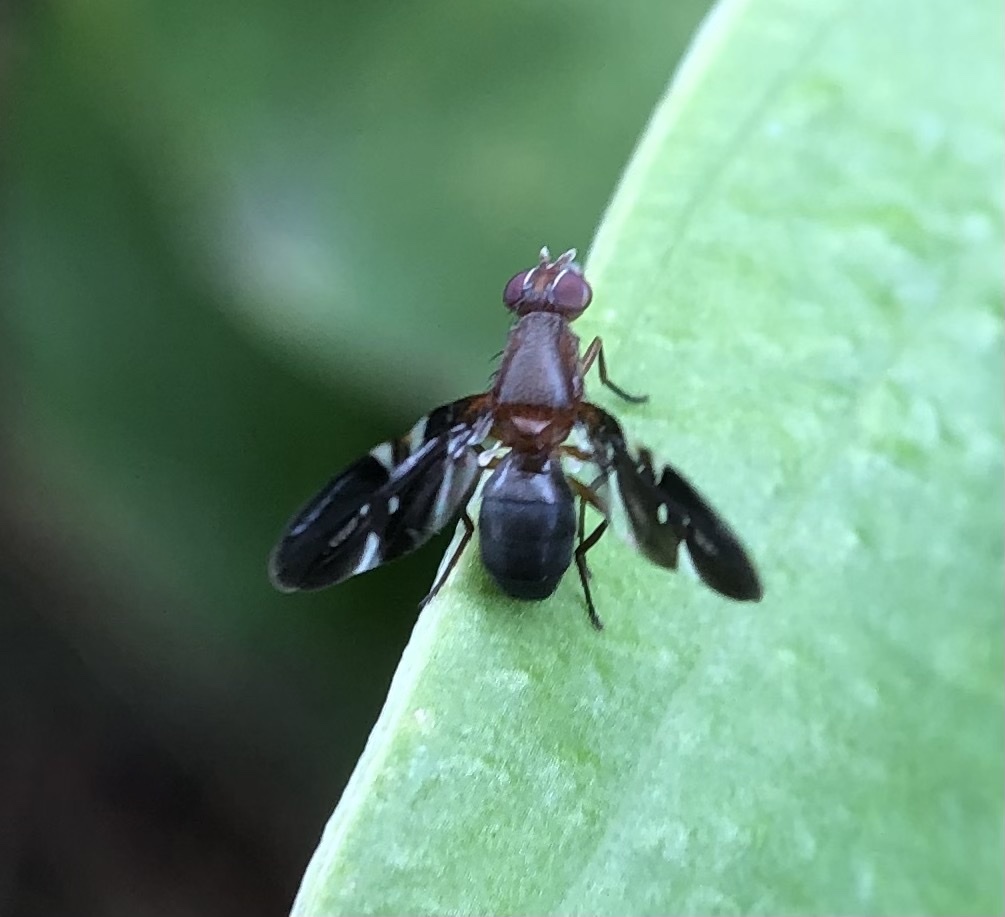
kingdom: Animalia
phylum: Arthropoda
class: Insecta
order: Diptera
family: Ulidiidae
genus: Delphinia
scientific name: Delphinia picta
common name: Common picture-winged fly
